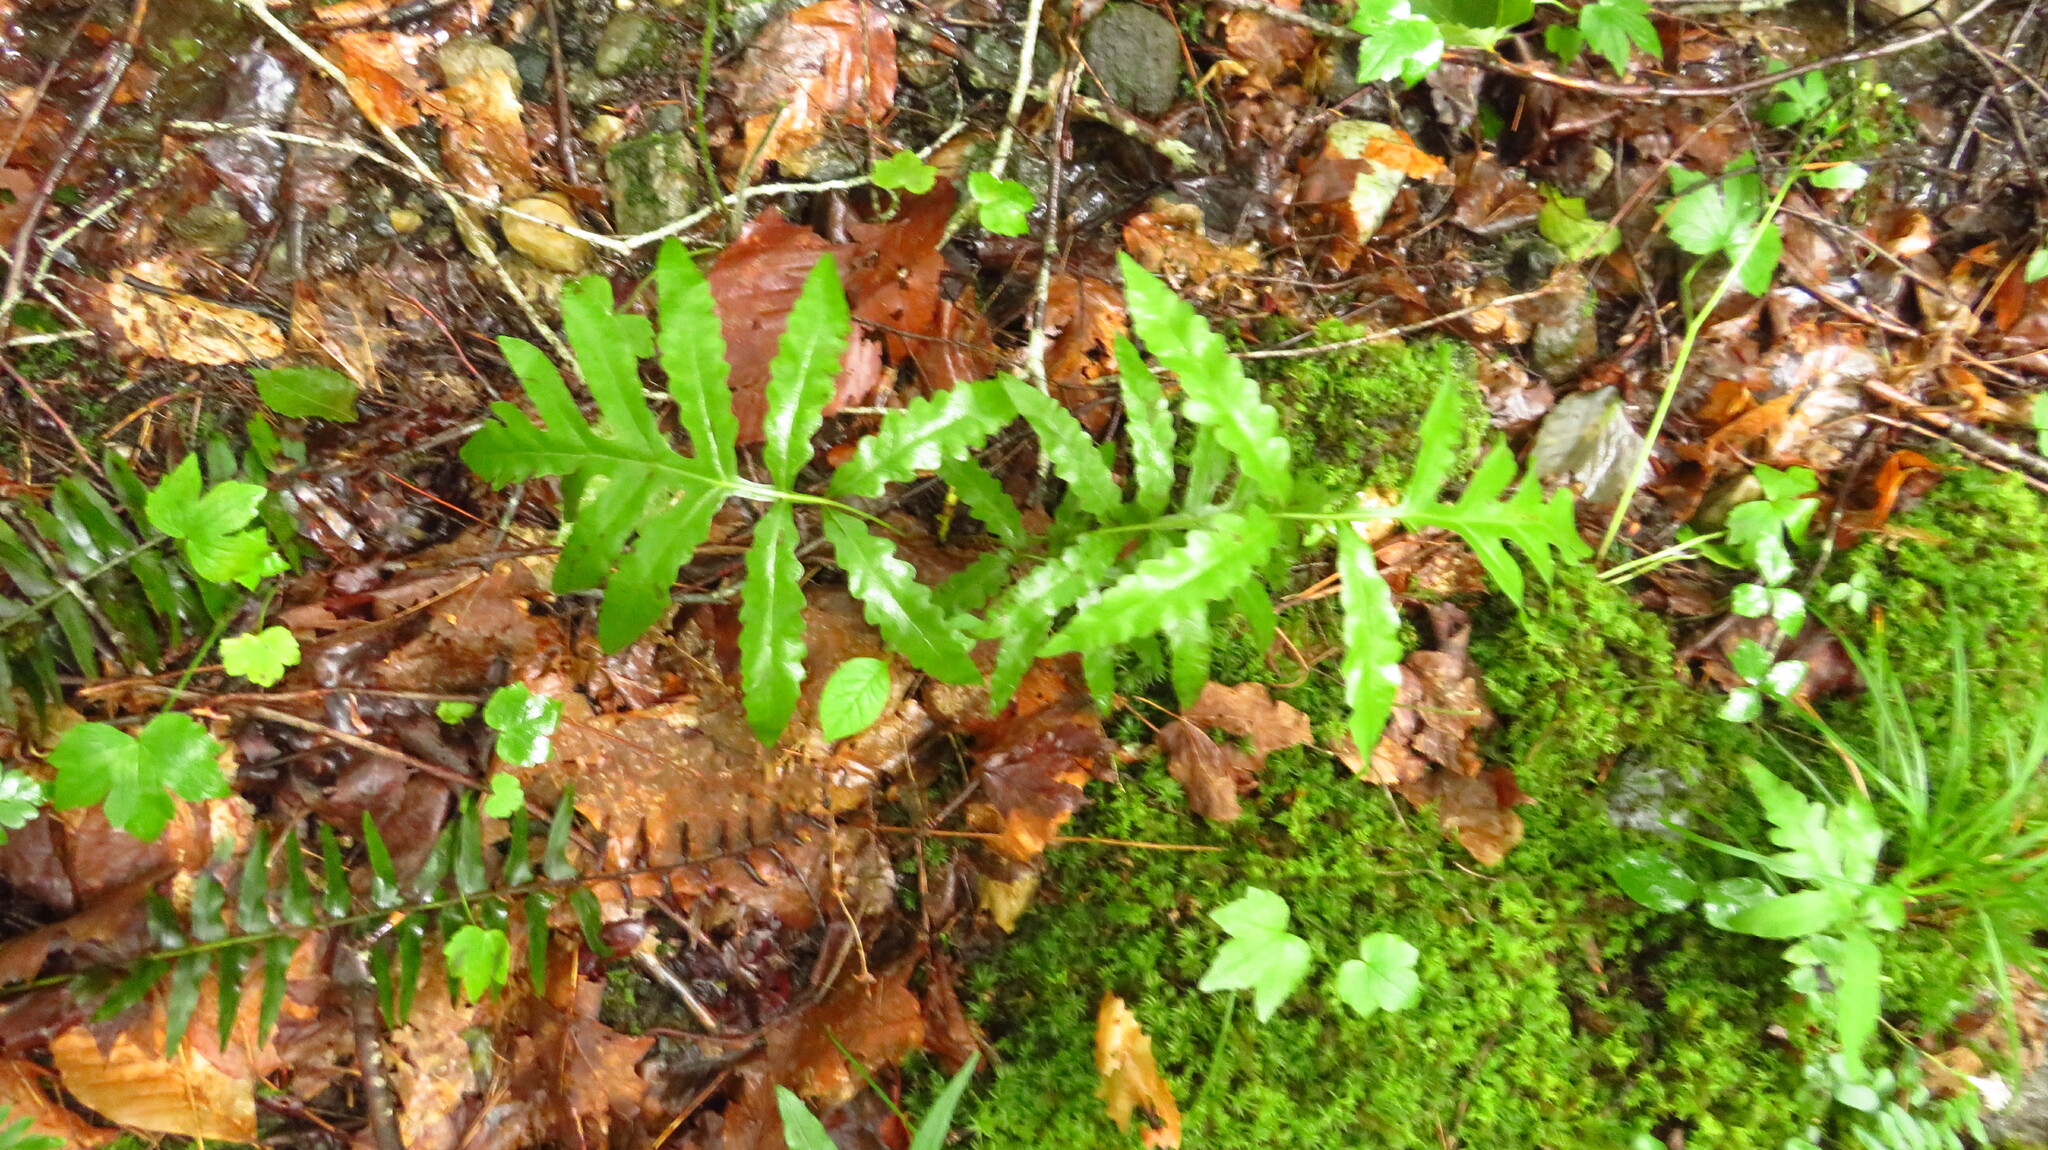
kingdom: Plantae
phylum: Tracheophyta
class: Polypodiopsida
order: Polypodiales
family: Onocleaceae
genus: Onoclea
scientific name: Onoclea sensibilis
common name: Sensitive fern
